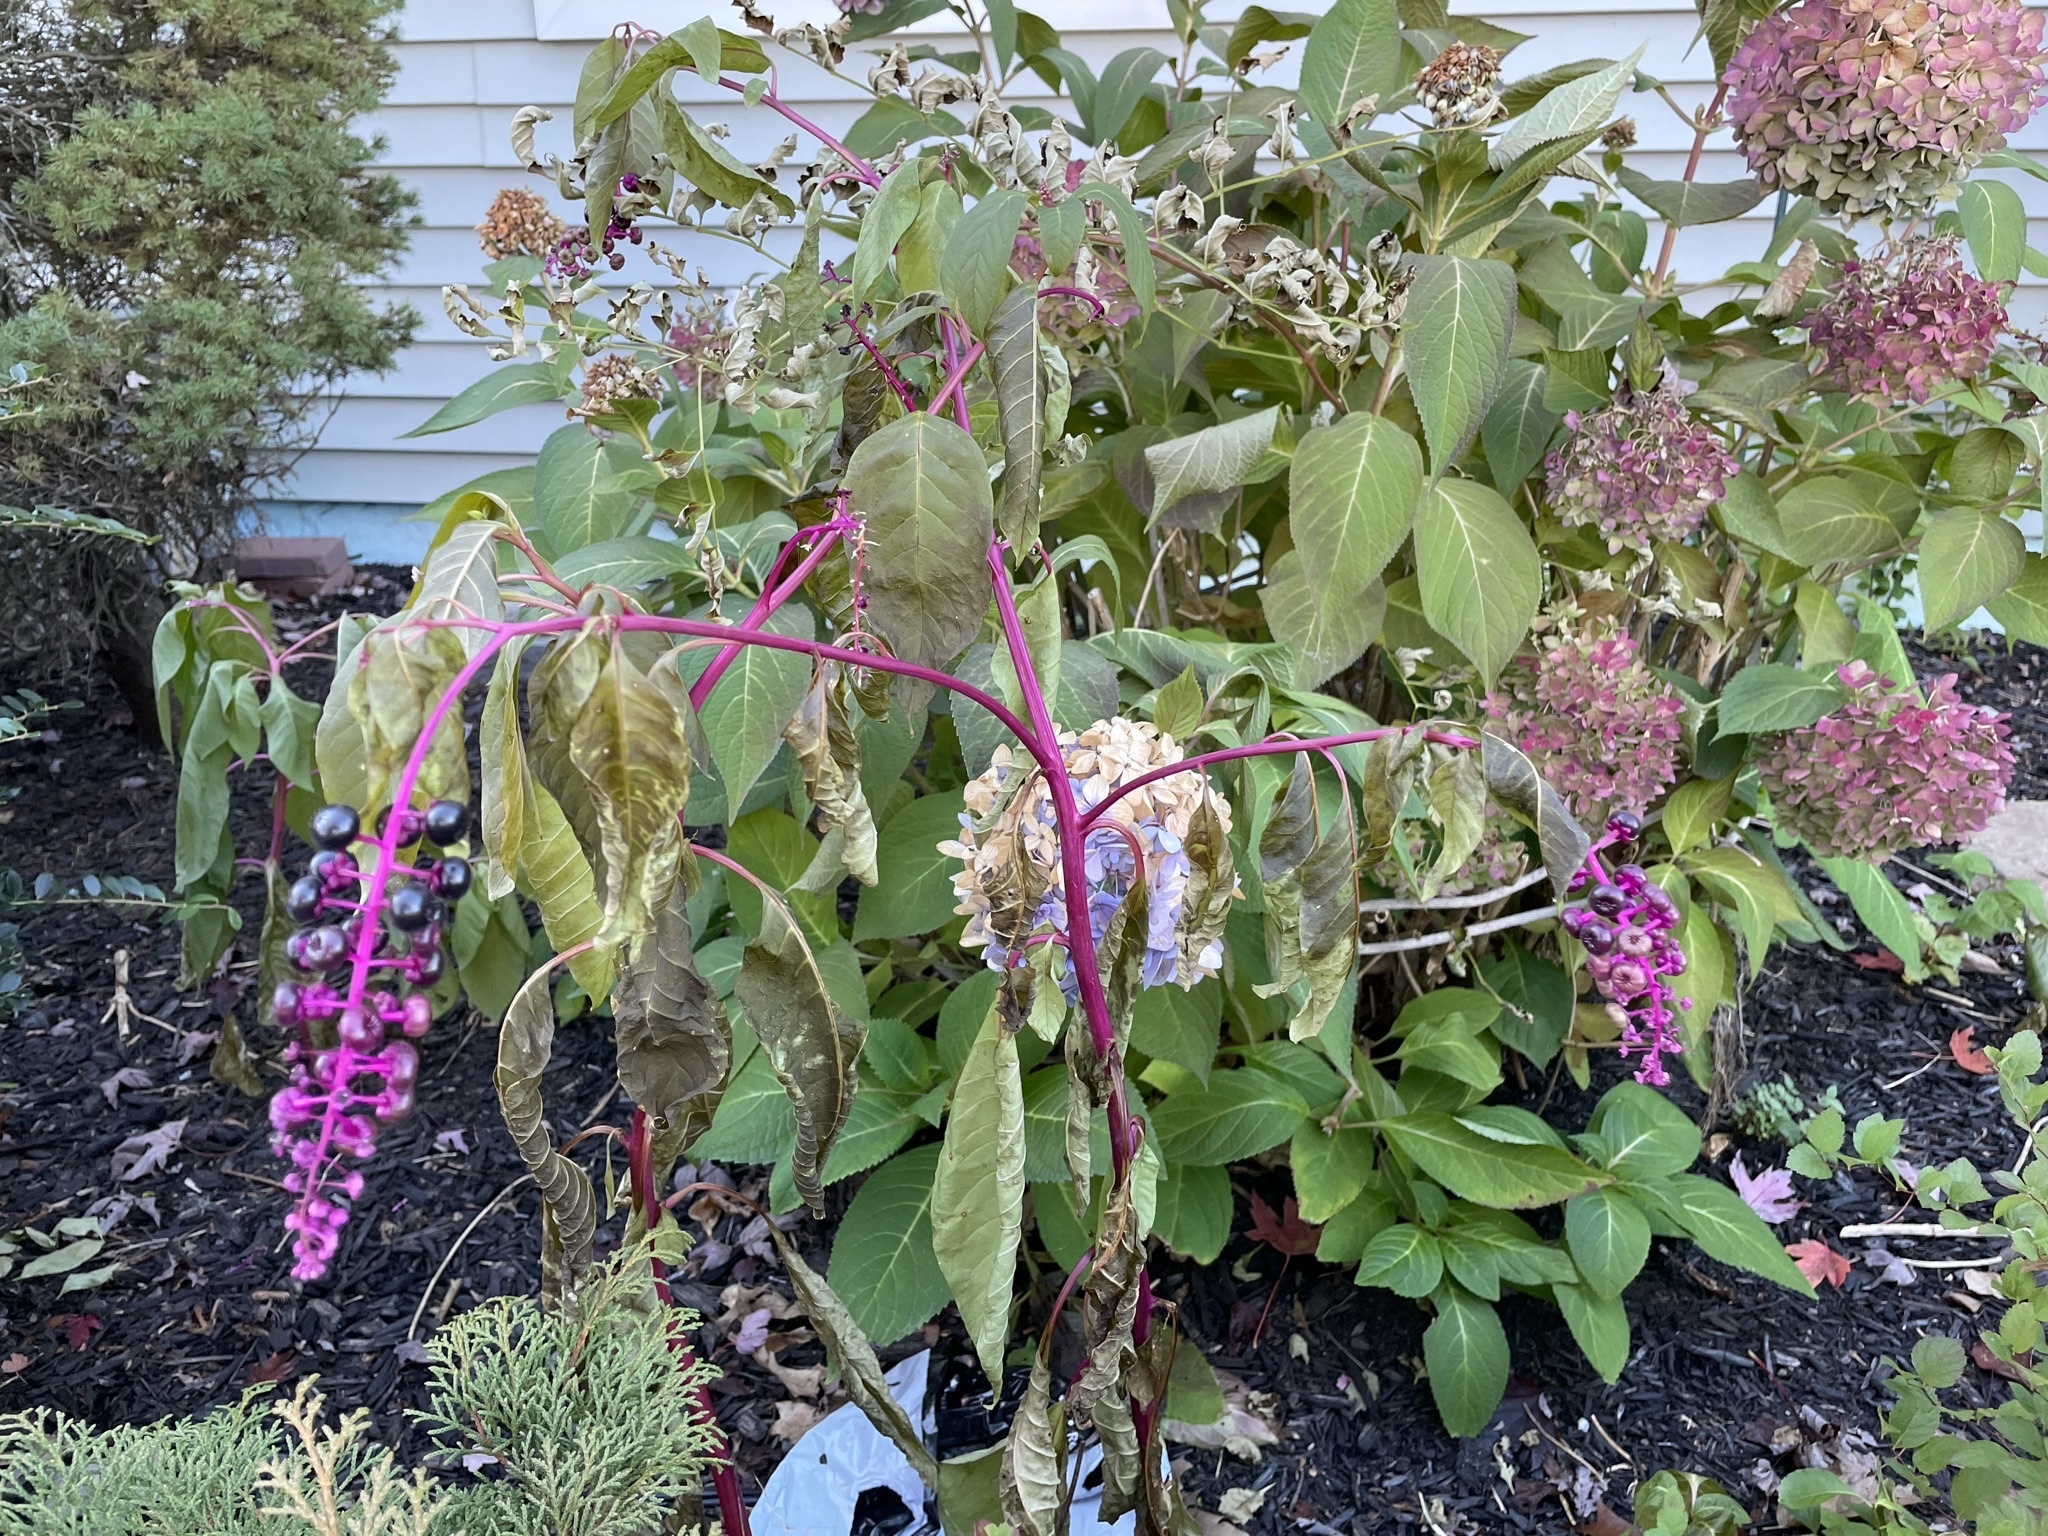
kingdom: Plantae
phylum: Tracheophyta
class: Magnoliopsida
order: Caryophyllales
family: Phytolaccaceae
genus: Phytolacca
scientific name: Phytolacca americana
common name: American pokeweed
